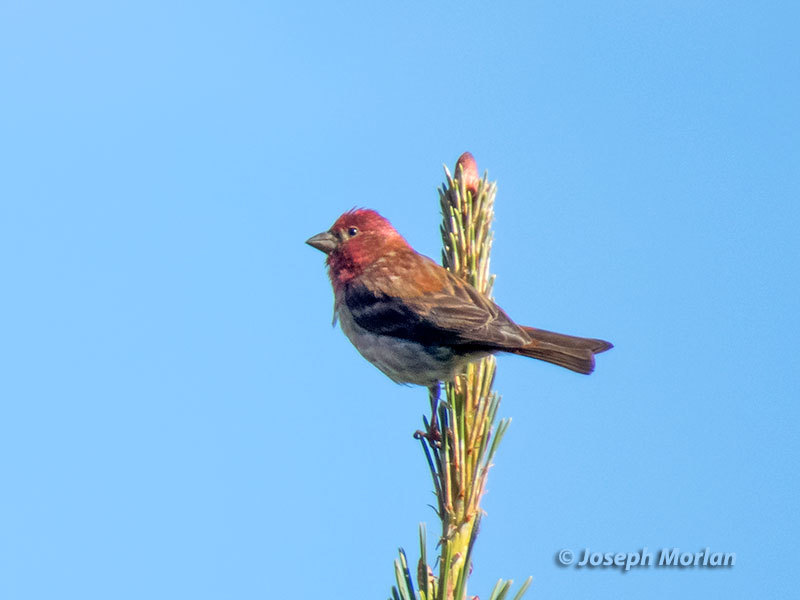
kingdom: Animalia
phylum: Chordata
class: Aves
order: Passeriformes
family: Fringillidae
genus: Haemorhous
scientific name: Haemorhous purpureus
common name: Purple finch
